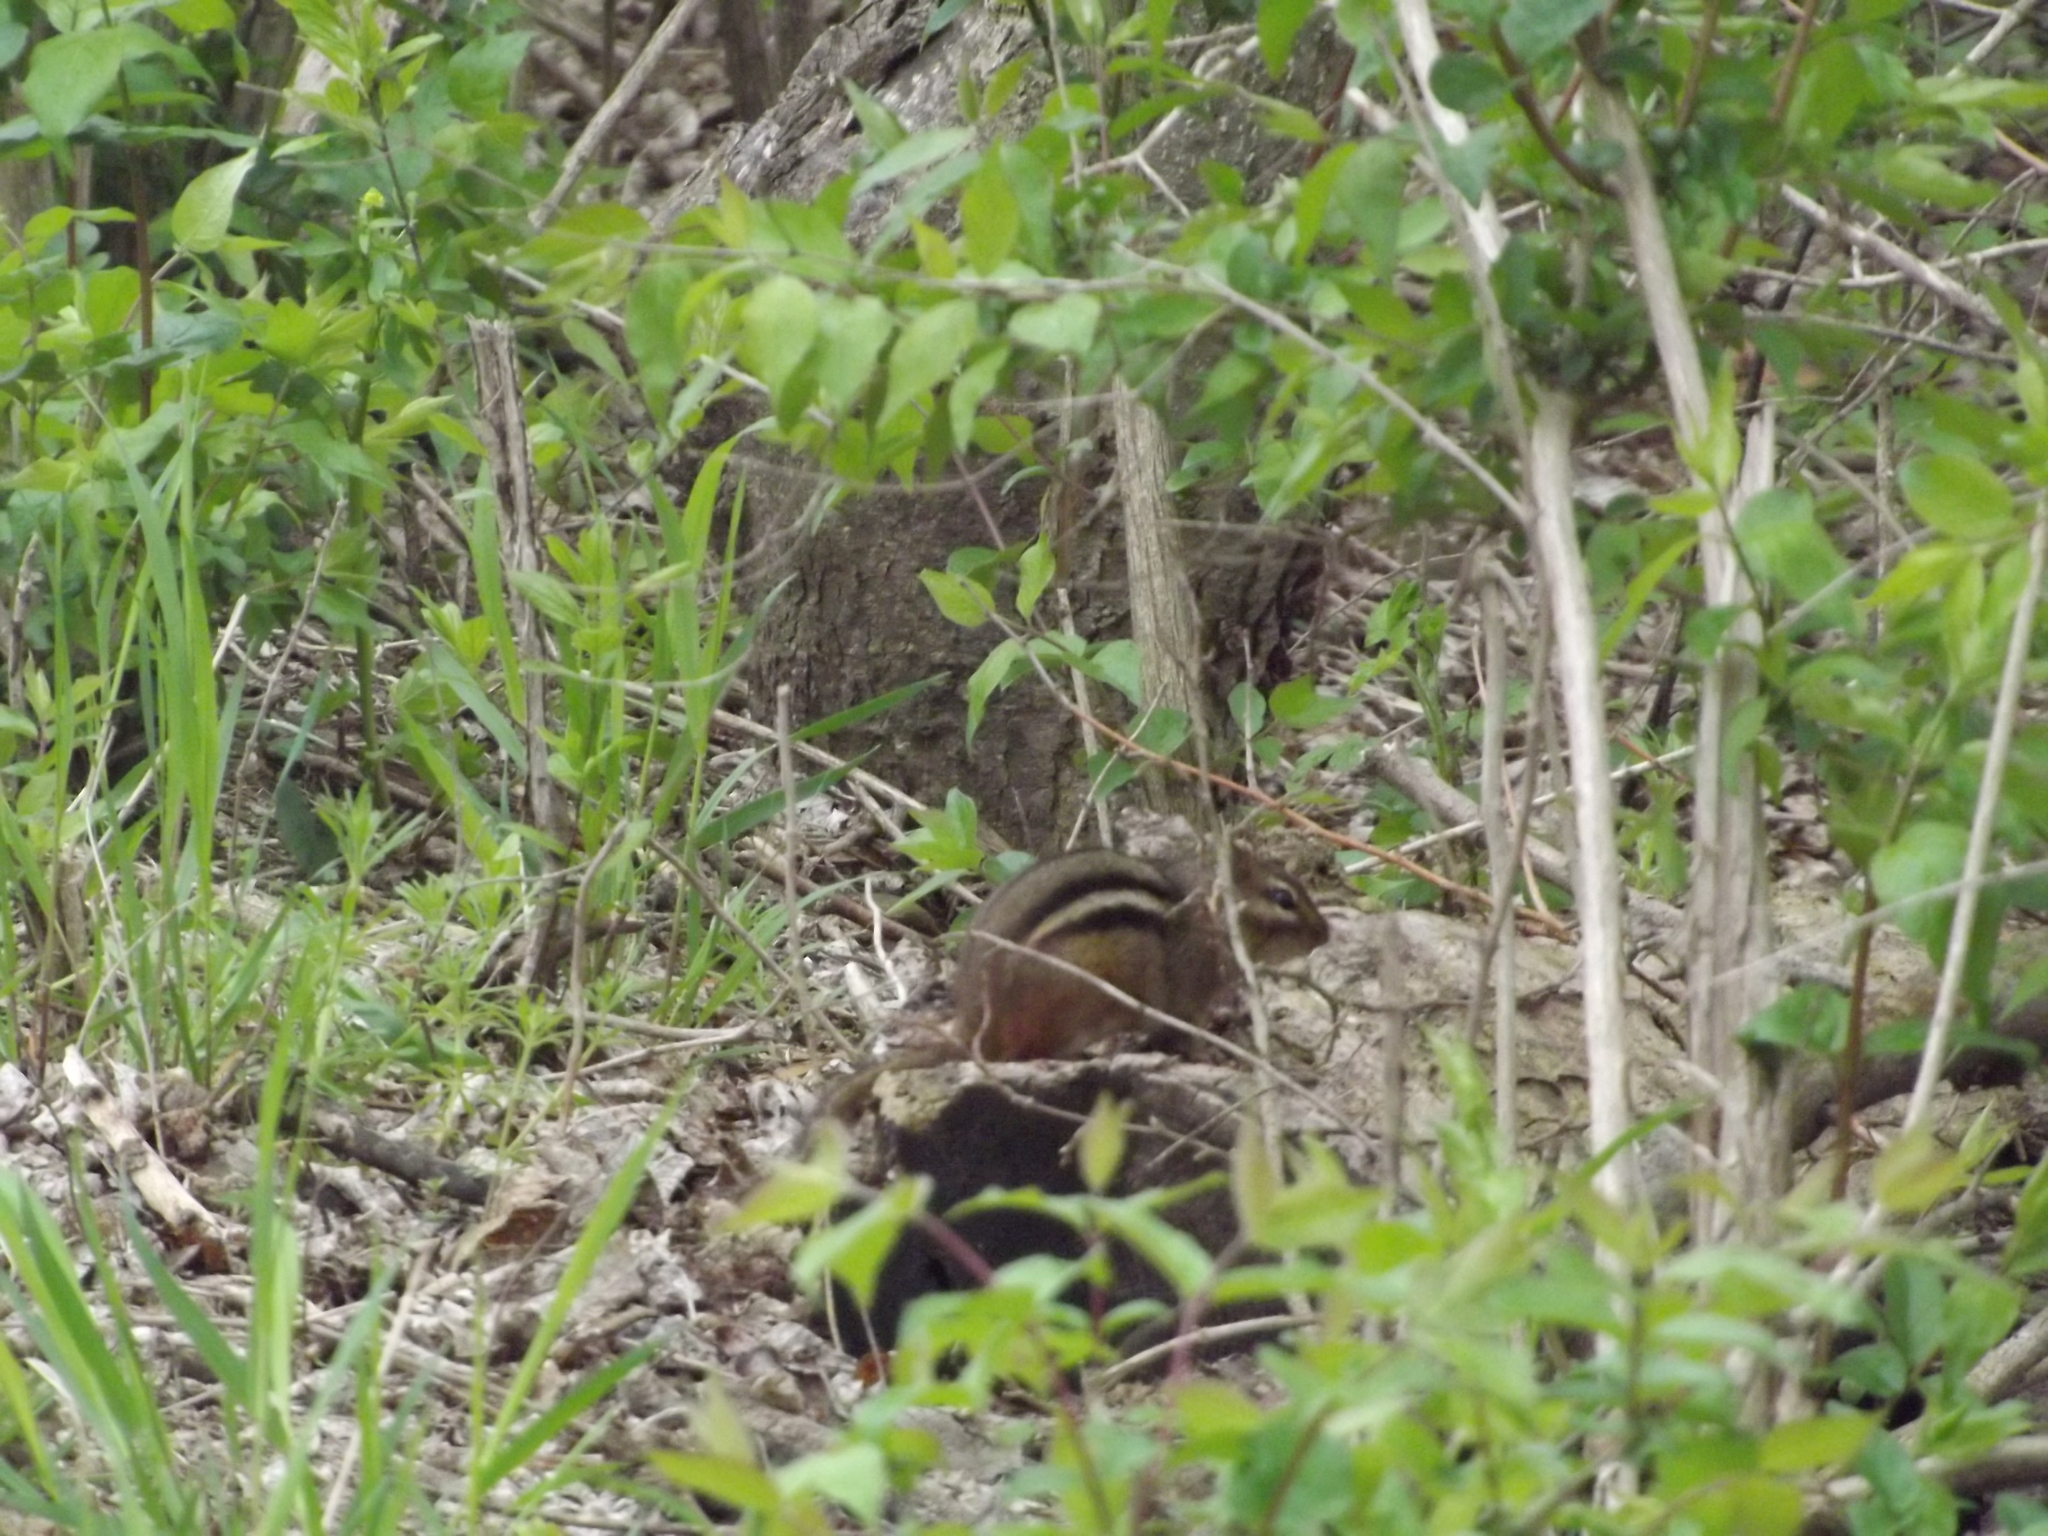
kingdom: Animalia
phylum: Chordata
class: Mammalia
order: Rodentia
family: Sciuridae
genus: Tamias
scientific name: Tamias striatus
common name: Eastern chipmunk
